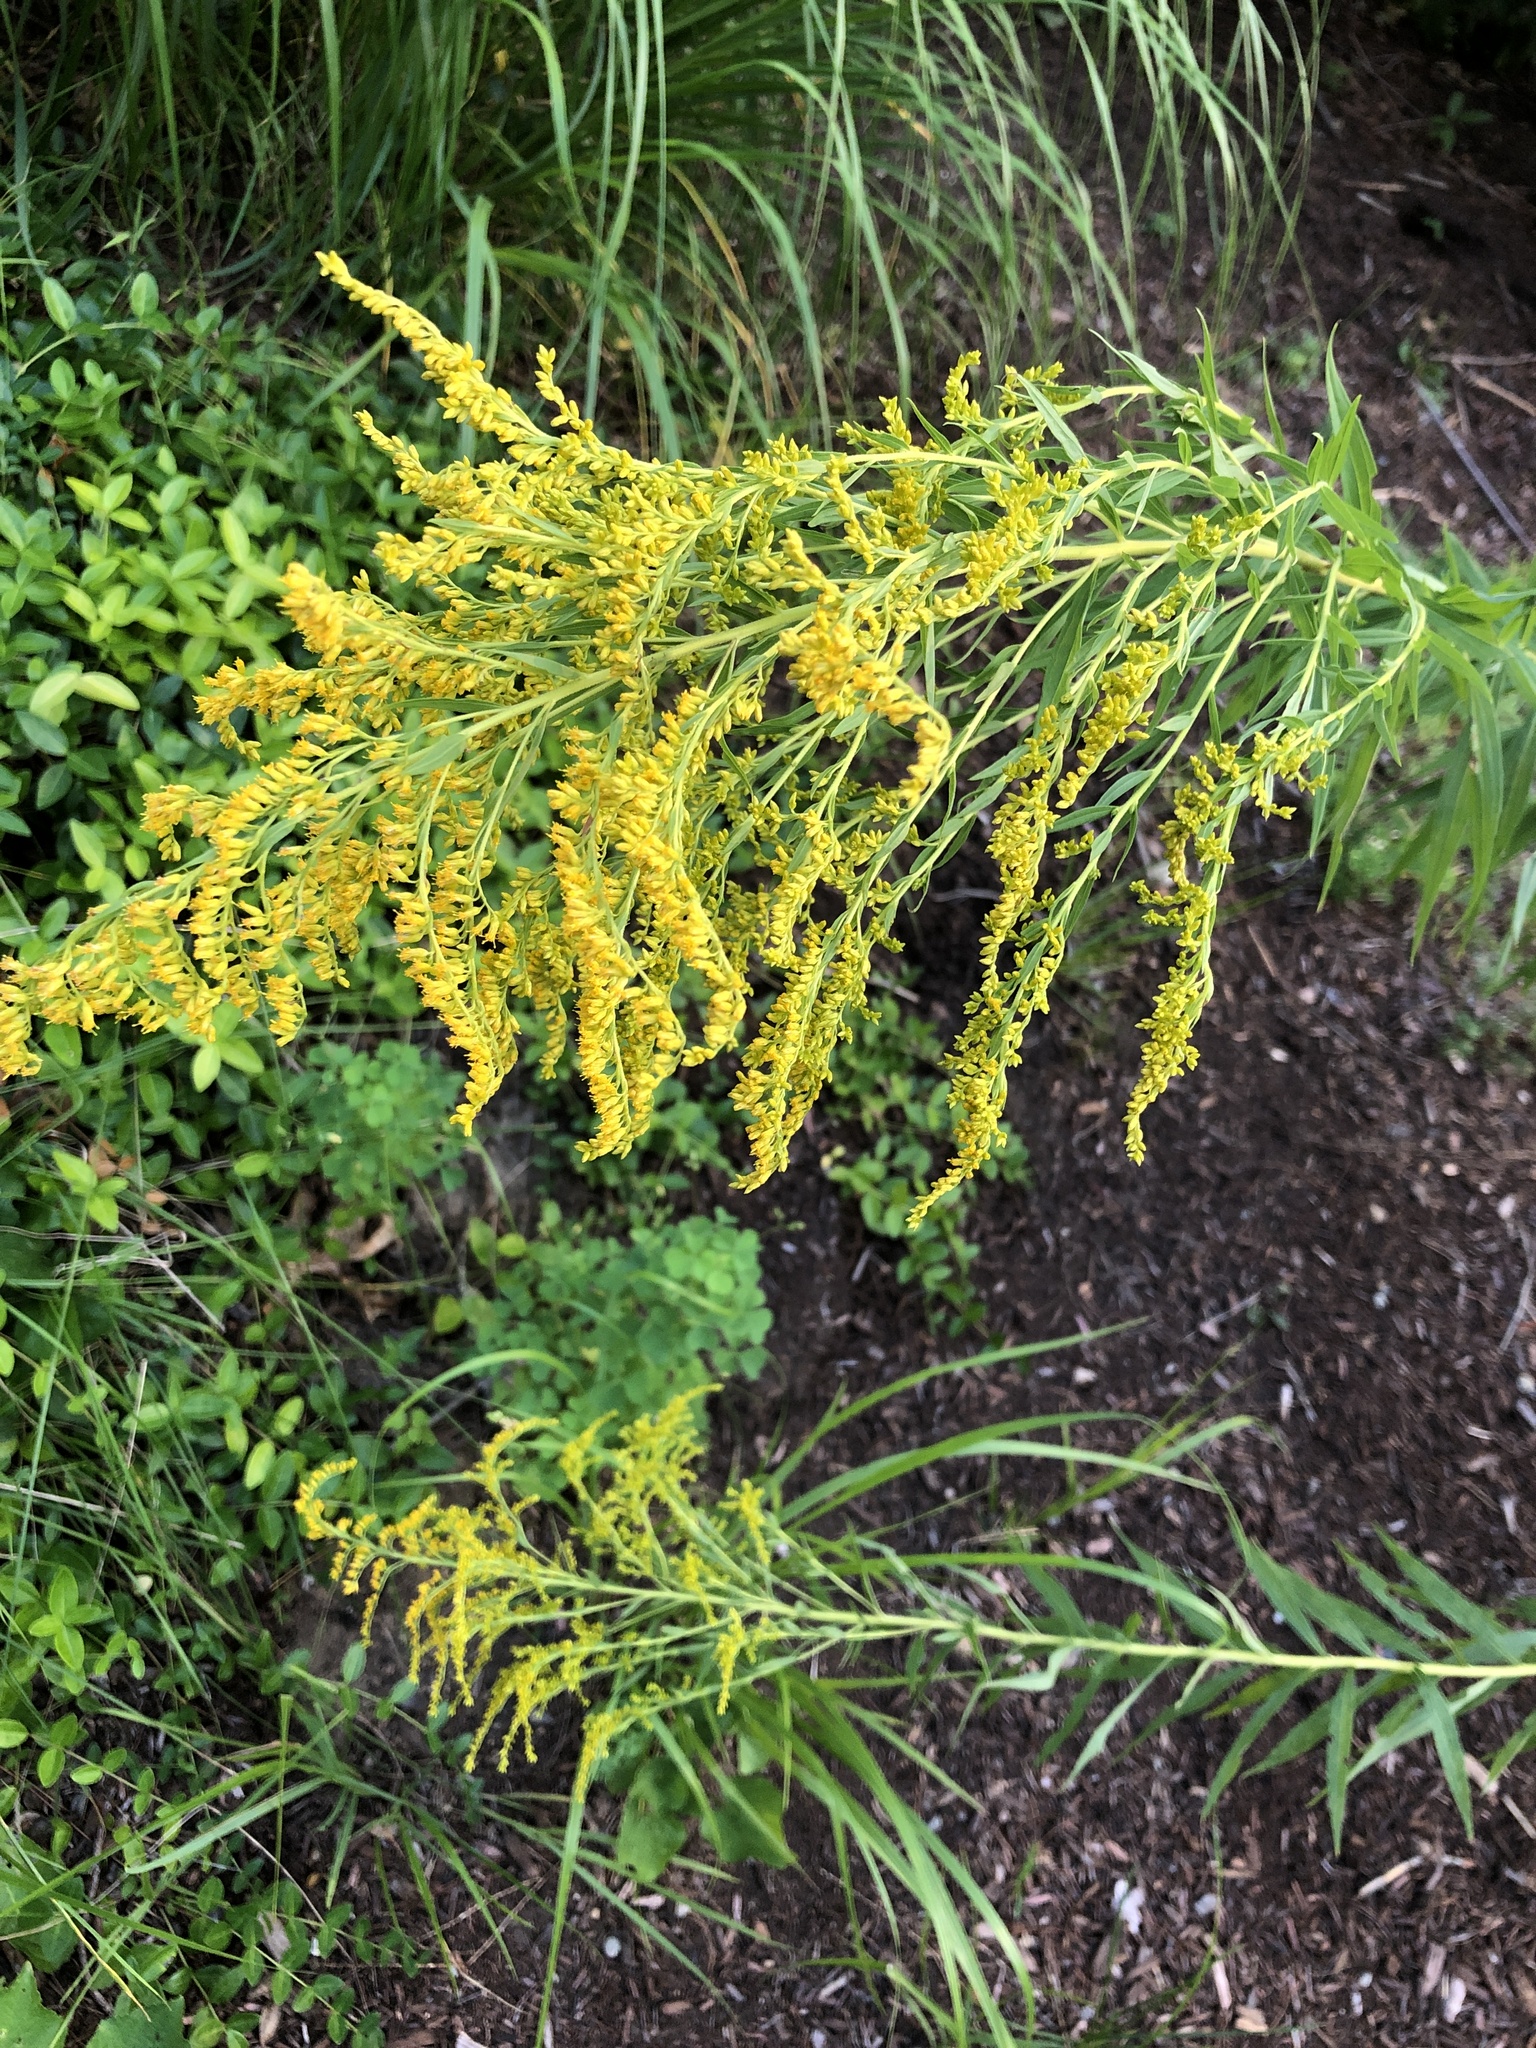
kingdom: Plantae
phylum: Tracheophyta
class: Magnoliopsida
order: Asterales
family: Asteraceae
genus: Solidago
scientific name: Solidago
